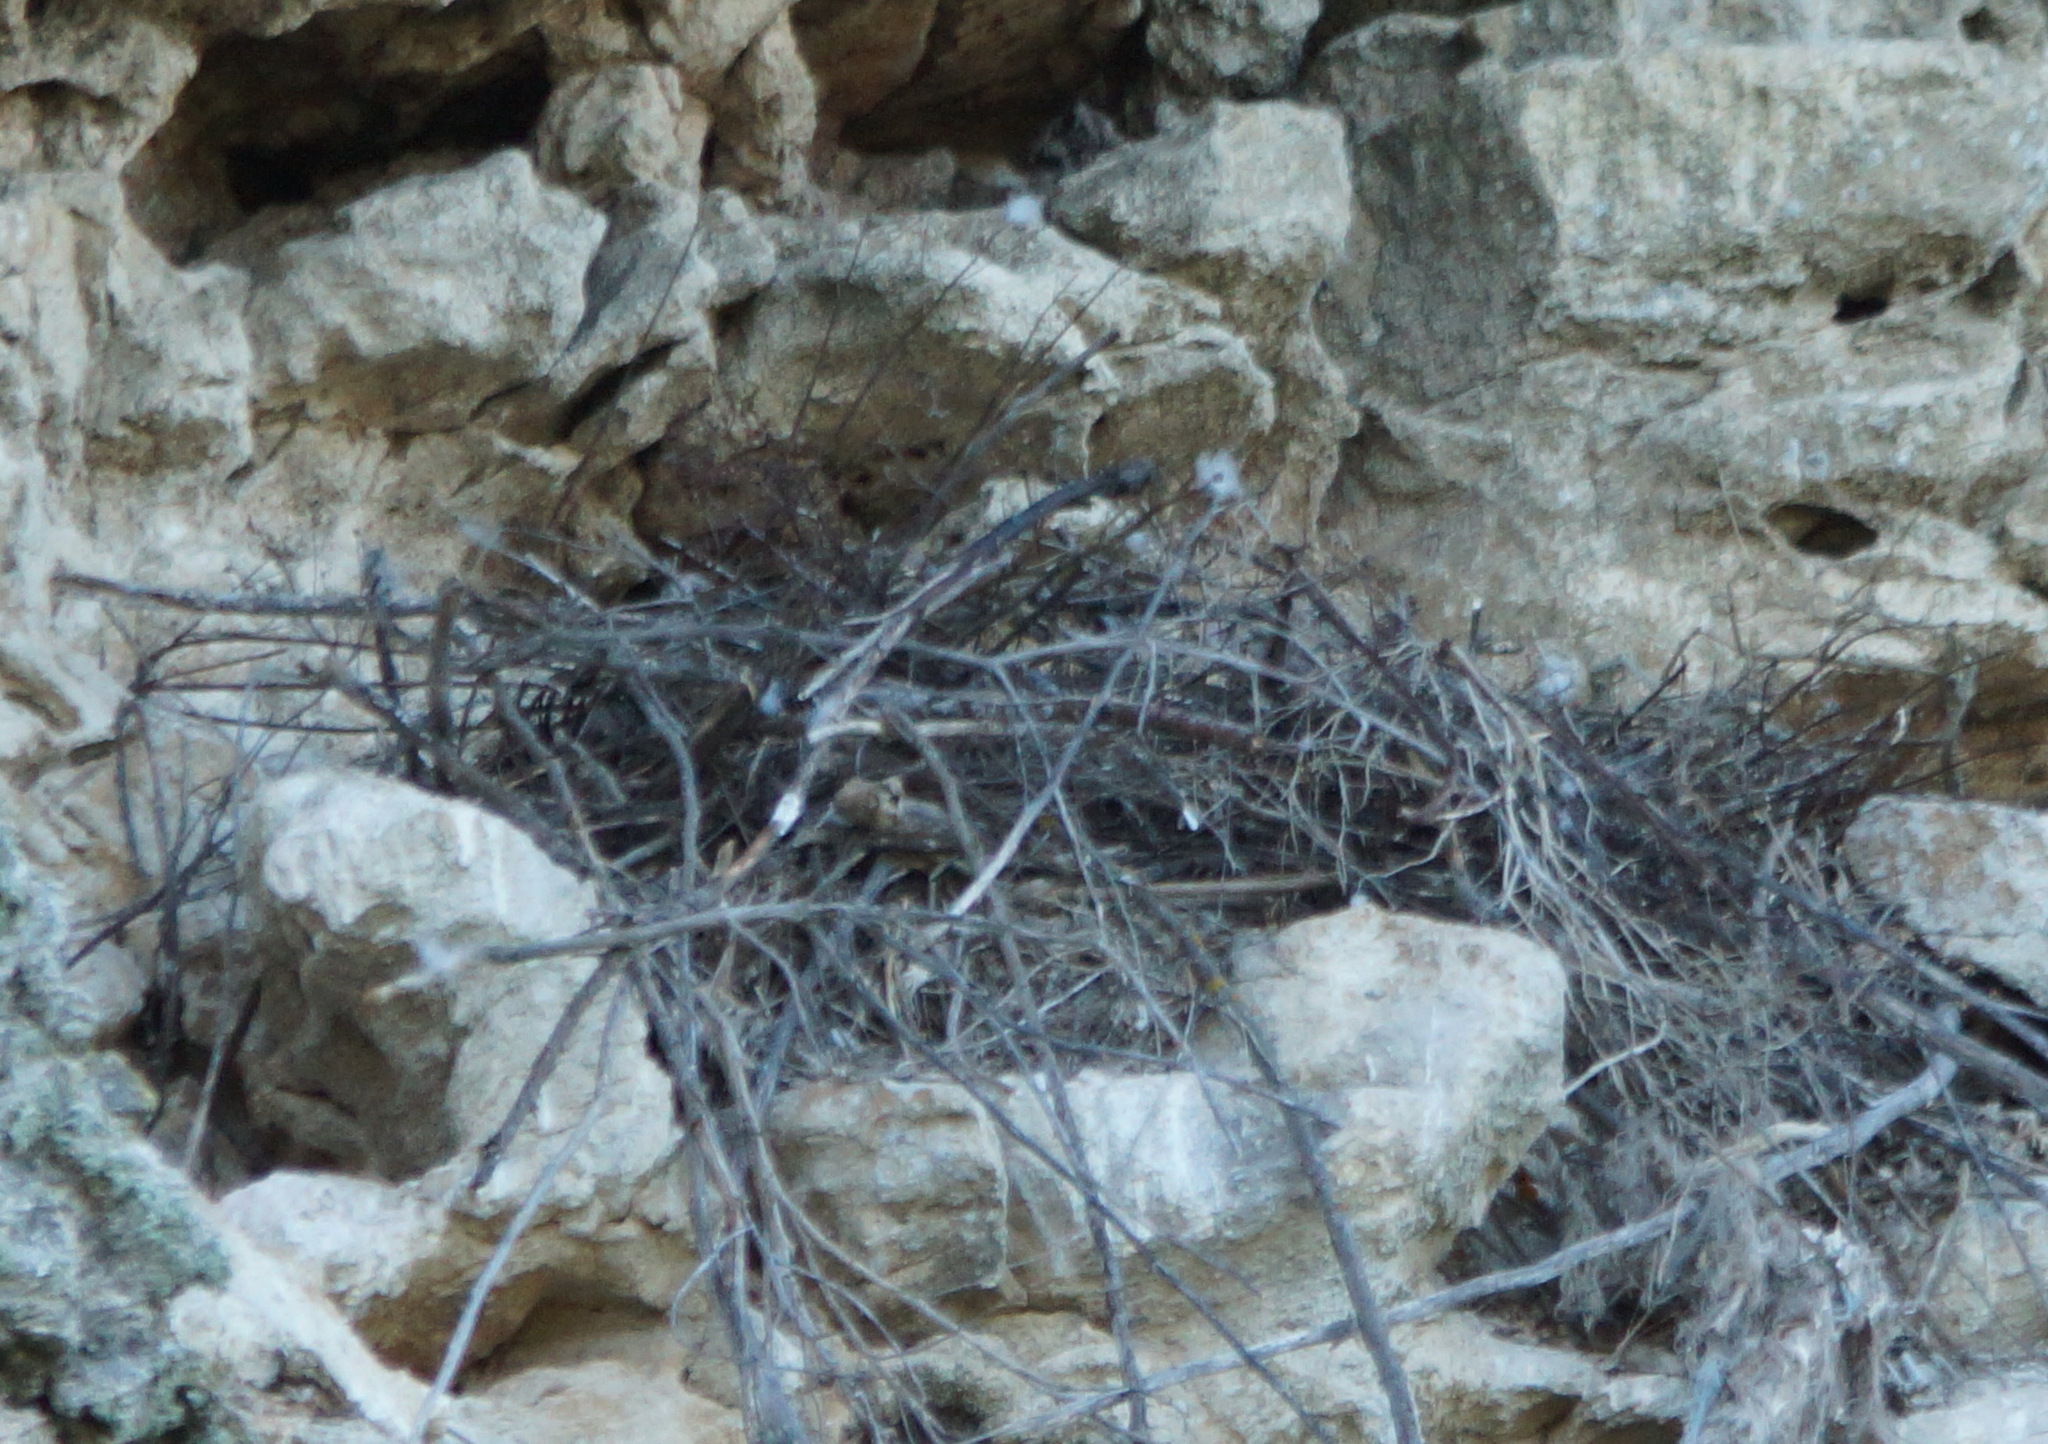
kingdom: Animalia
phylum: Chordata
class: Aves
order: Accipitriformes
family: Accipitridae
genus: Buteo
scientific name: Buteo rufinus
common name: Long-legged buzzard
